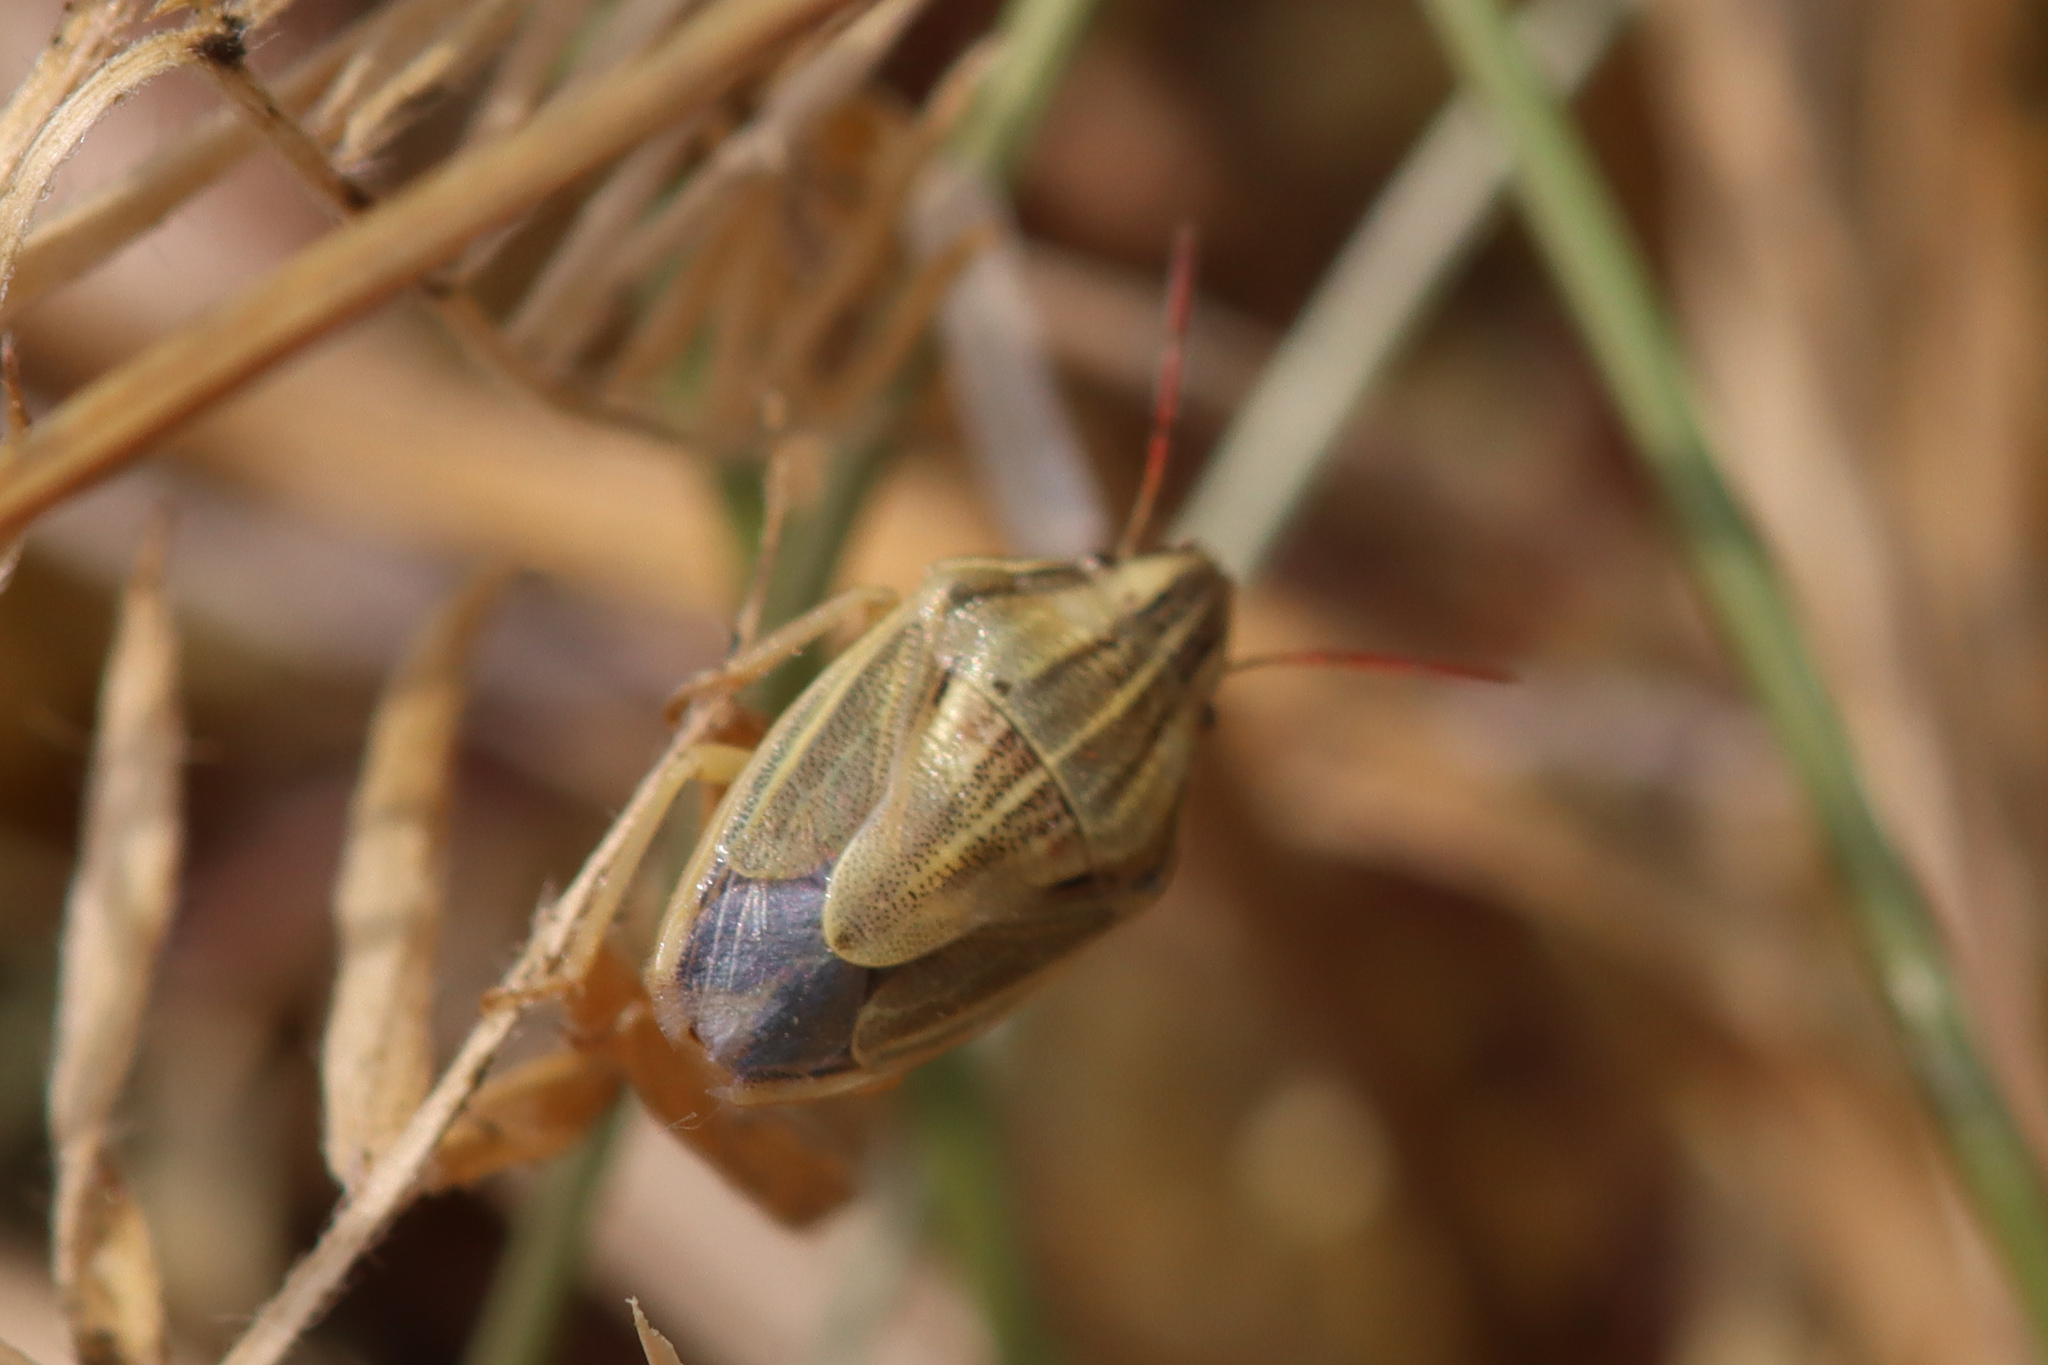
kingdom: Animalia
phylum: Arthropoda
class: Insecta
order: Hemiptera
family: Pentatomidae
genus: Aelia
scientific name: Aelia acuminata
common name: Bishop's mitre
